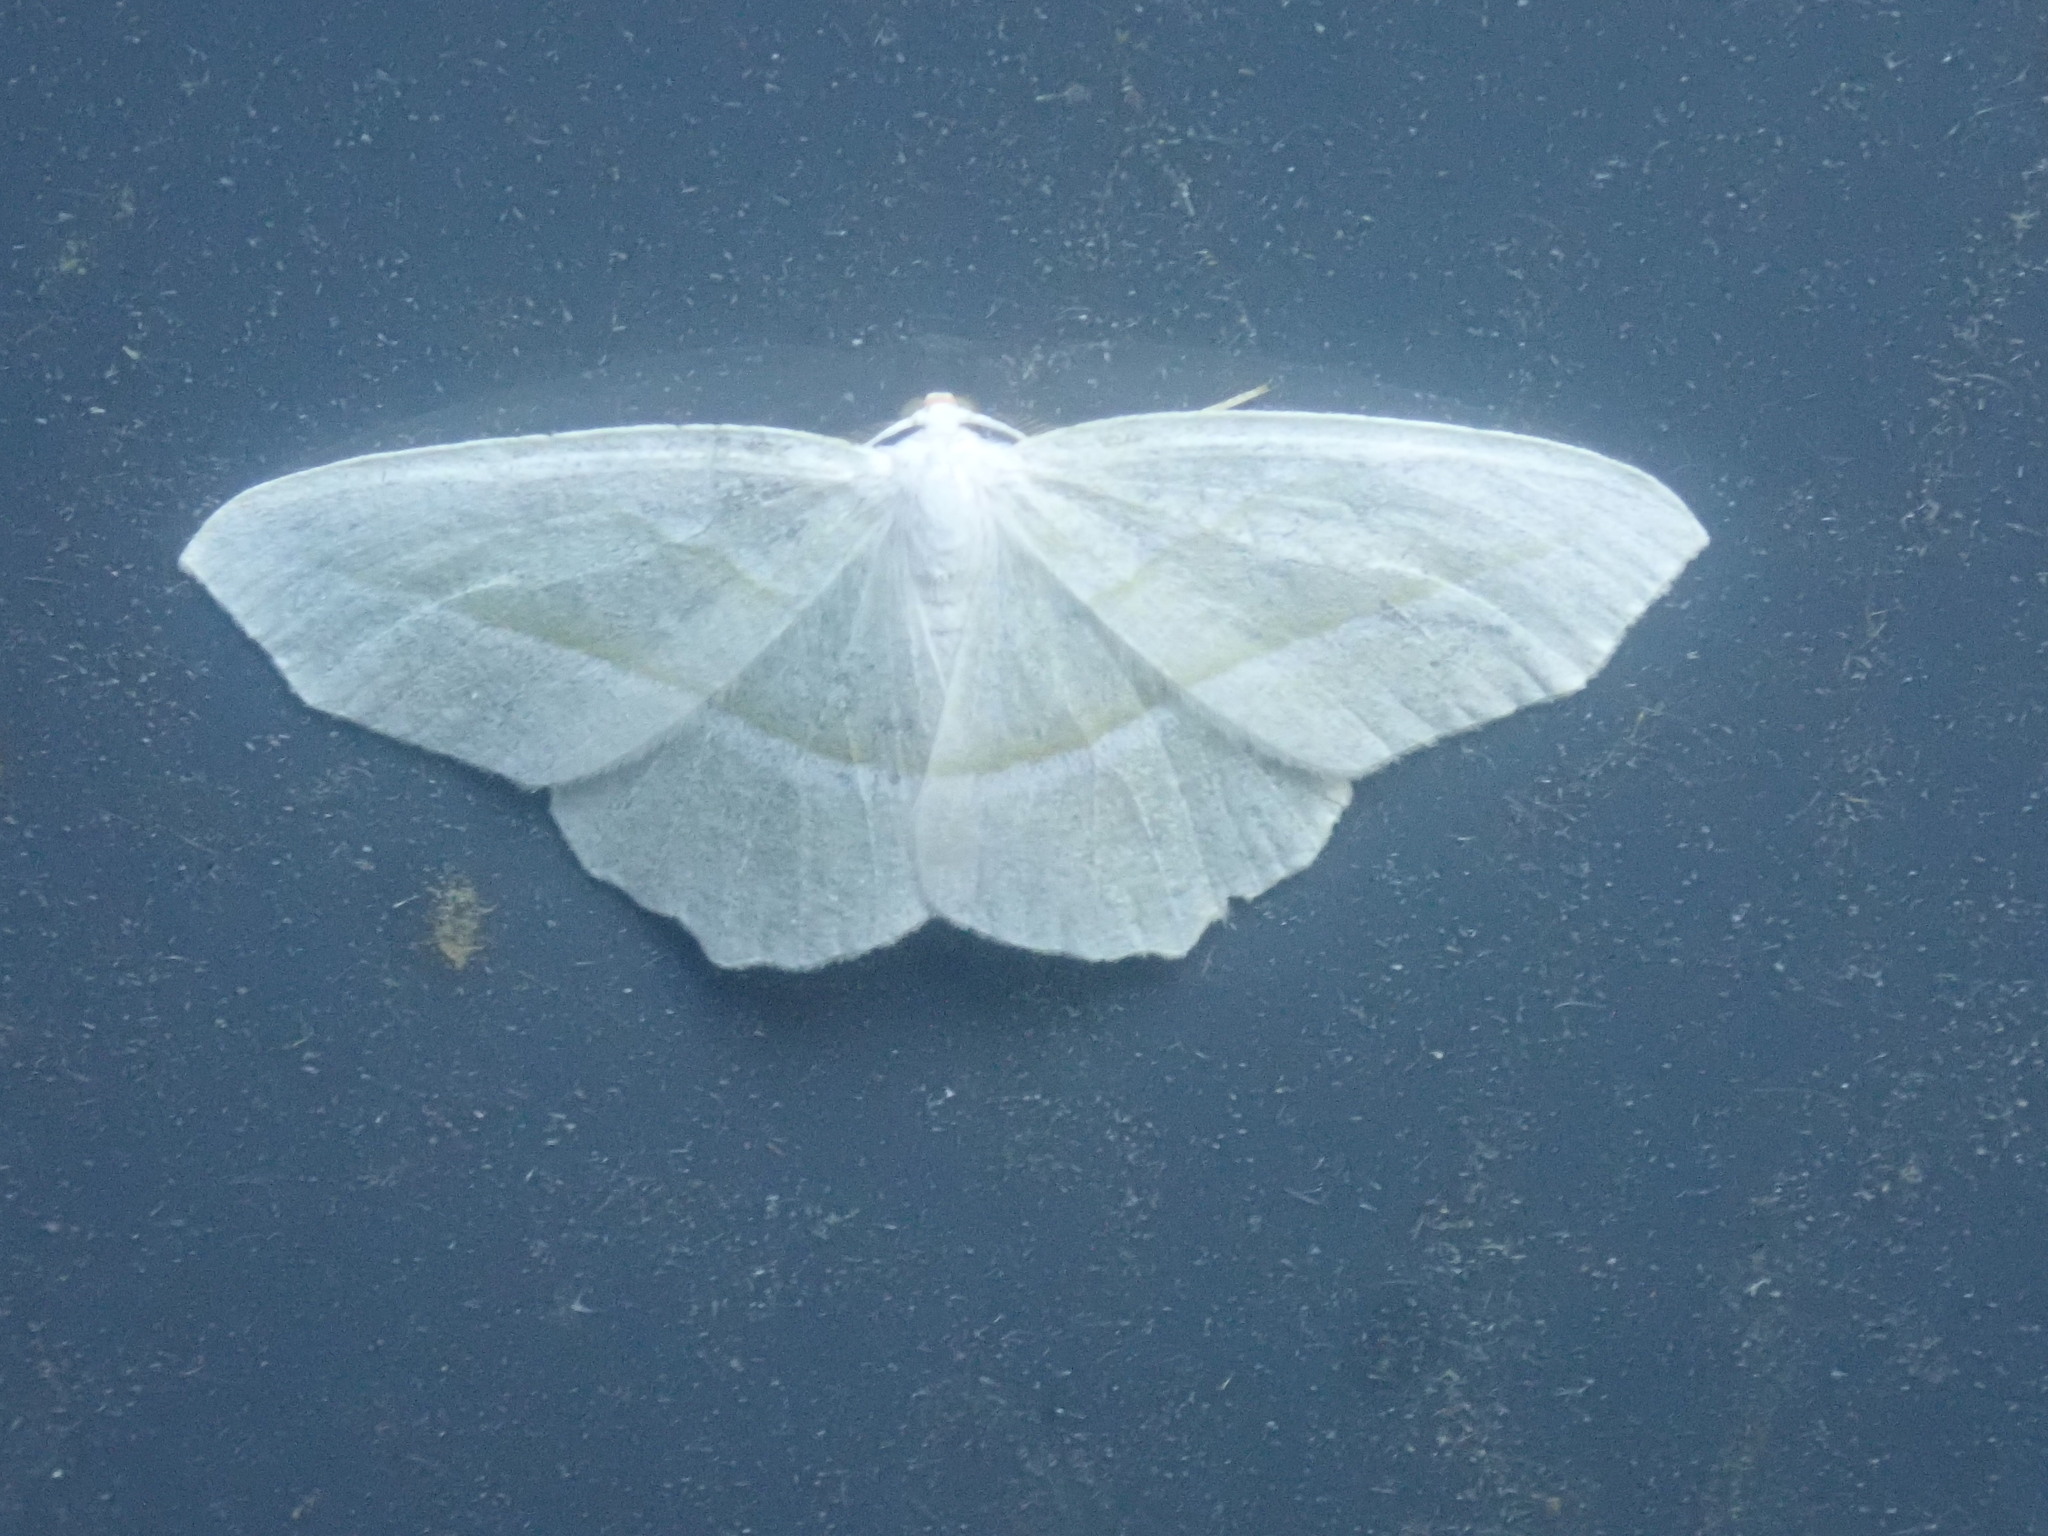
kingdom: Animalia
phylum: Arthropoda
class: Insecta
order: Lepidoptera
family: Geometridae
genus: Campaea
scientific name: Campaea perlata
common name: Fringed looper
